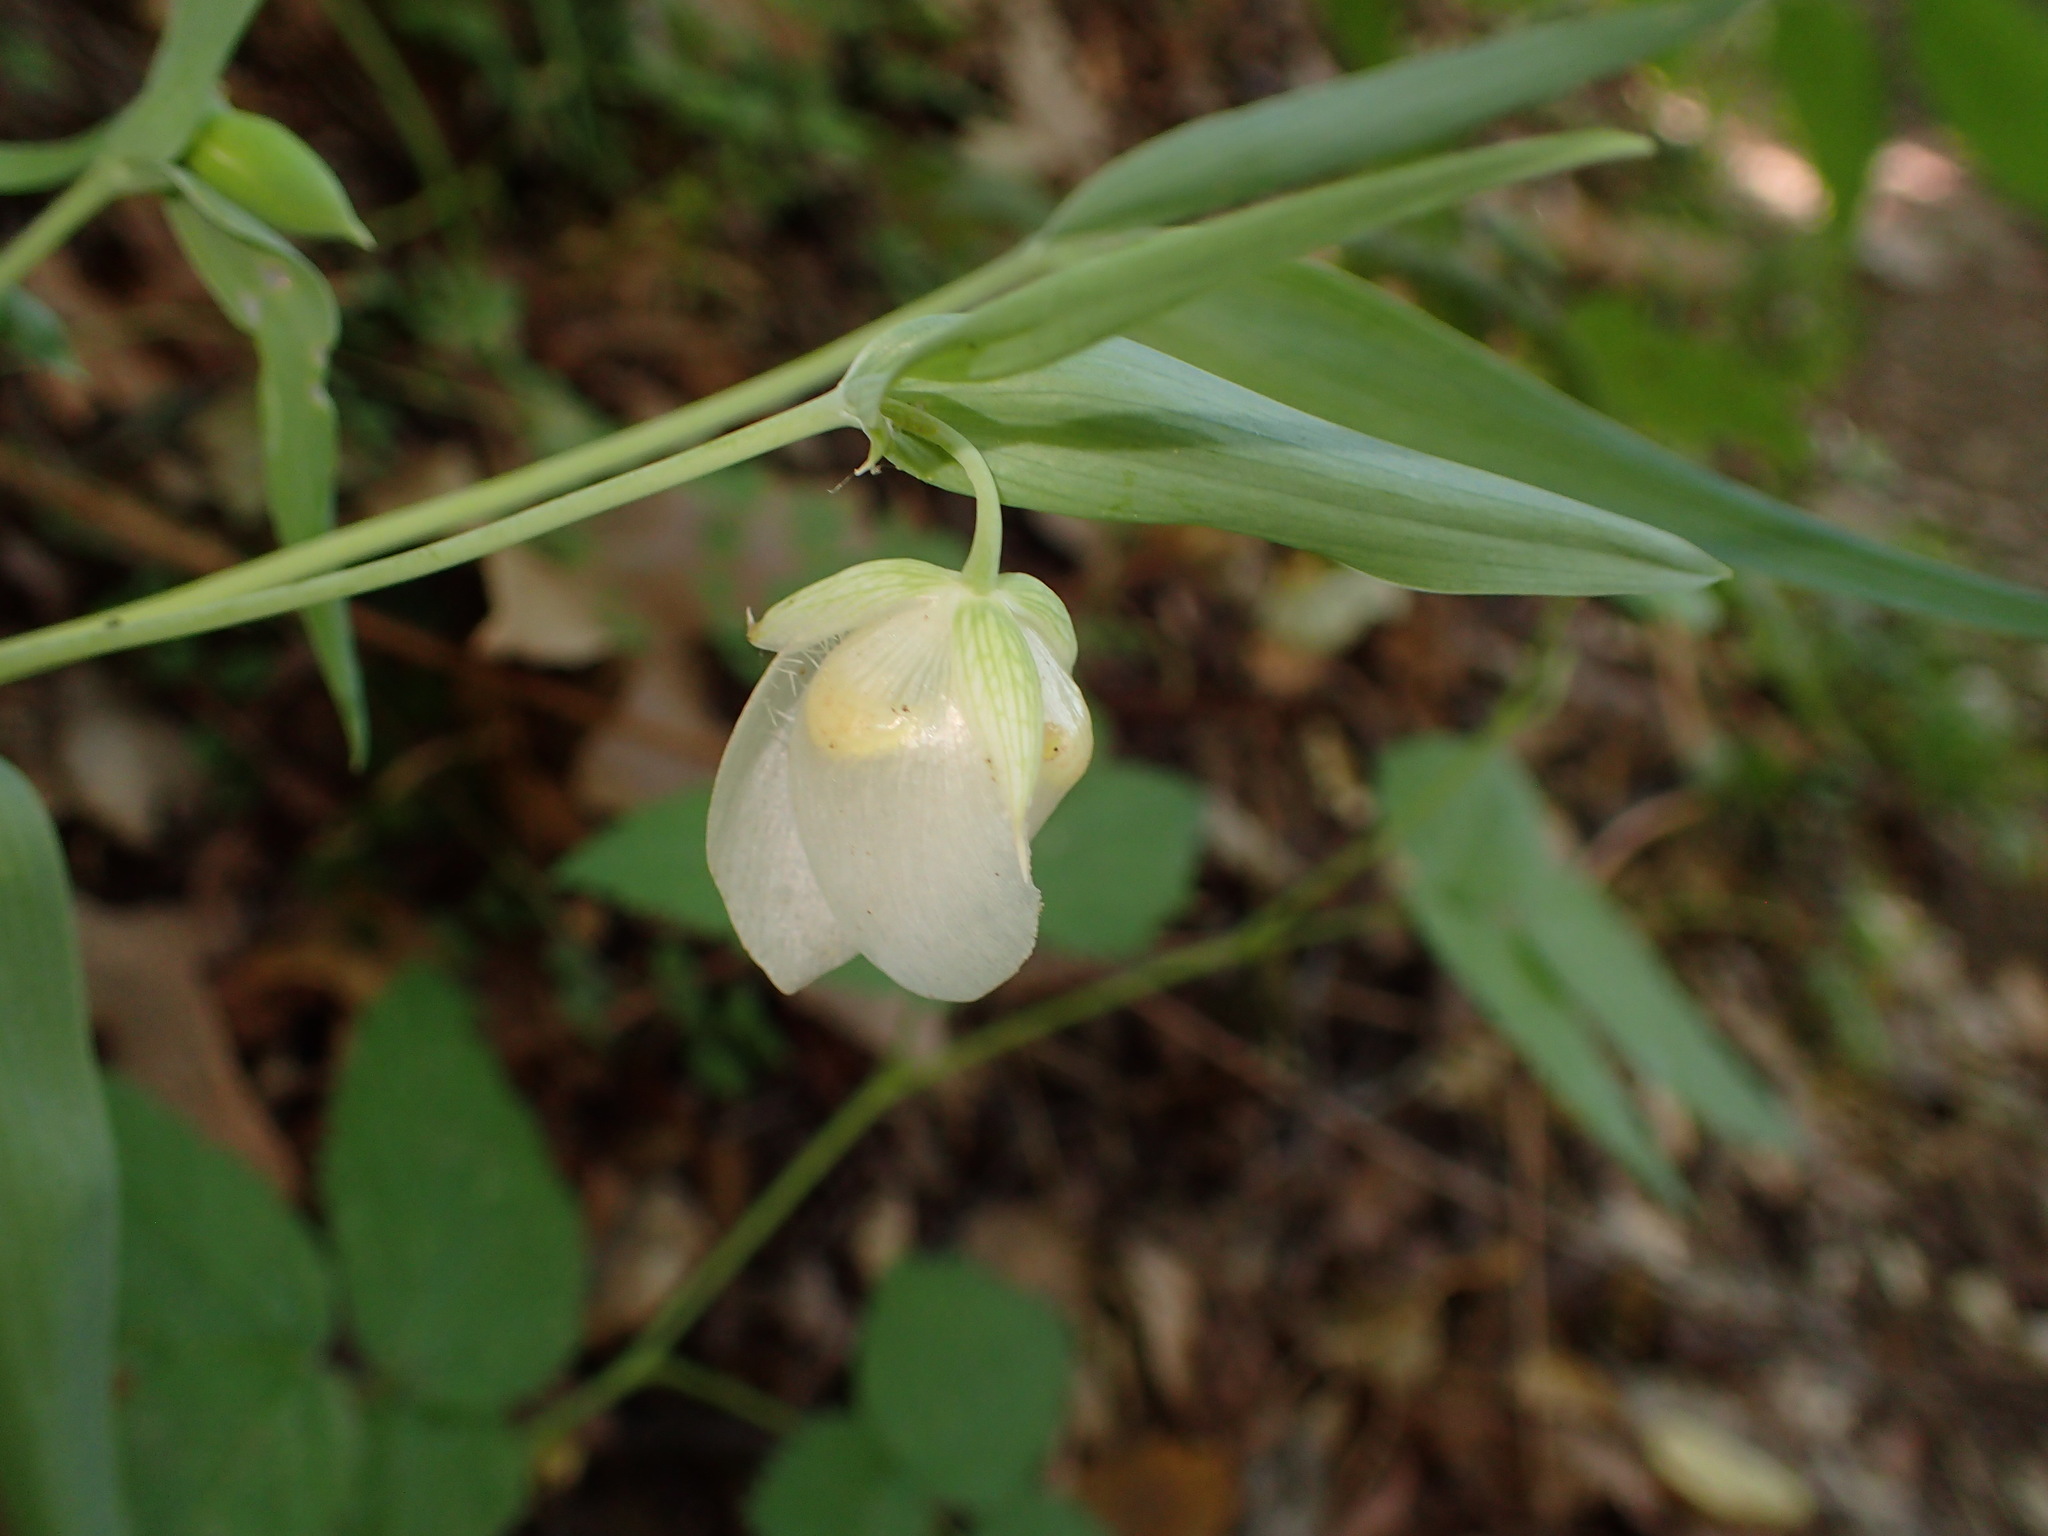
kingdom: Plantae
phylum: Tracheophyta
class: Liliopsida
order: Liliales
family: Liliaceae
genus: Calochortus
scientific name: Calochortus albus
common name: Fairy-lantern
